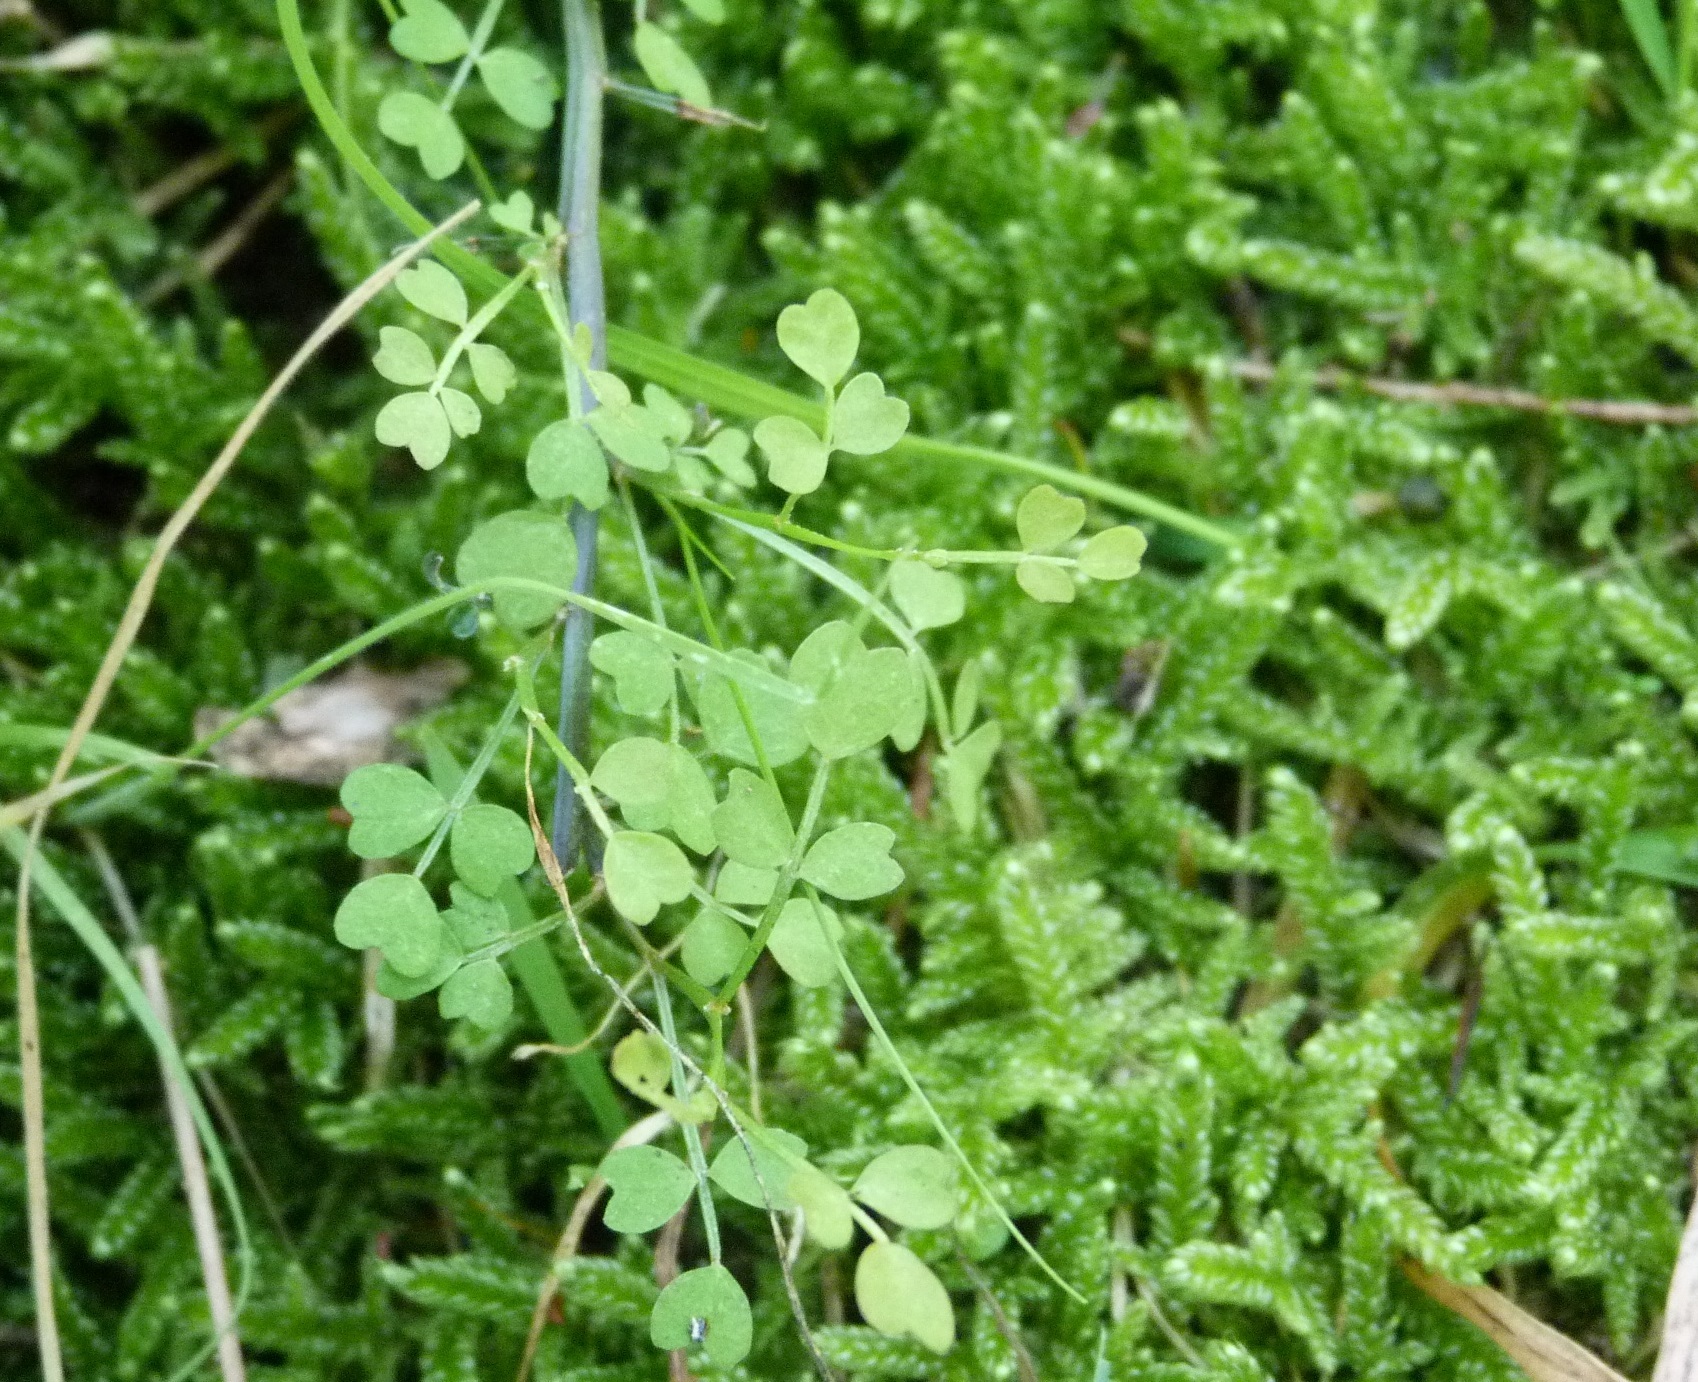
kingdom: Plantae
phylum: Tracheophyta
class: Magnoliopsida
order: Fabales
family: Fabaceae
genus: Carmichaelia
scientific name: Carmichaelia australis
